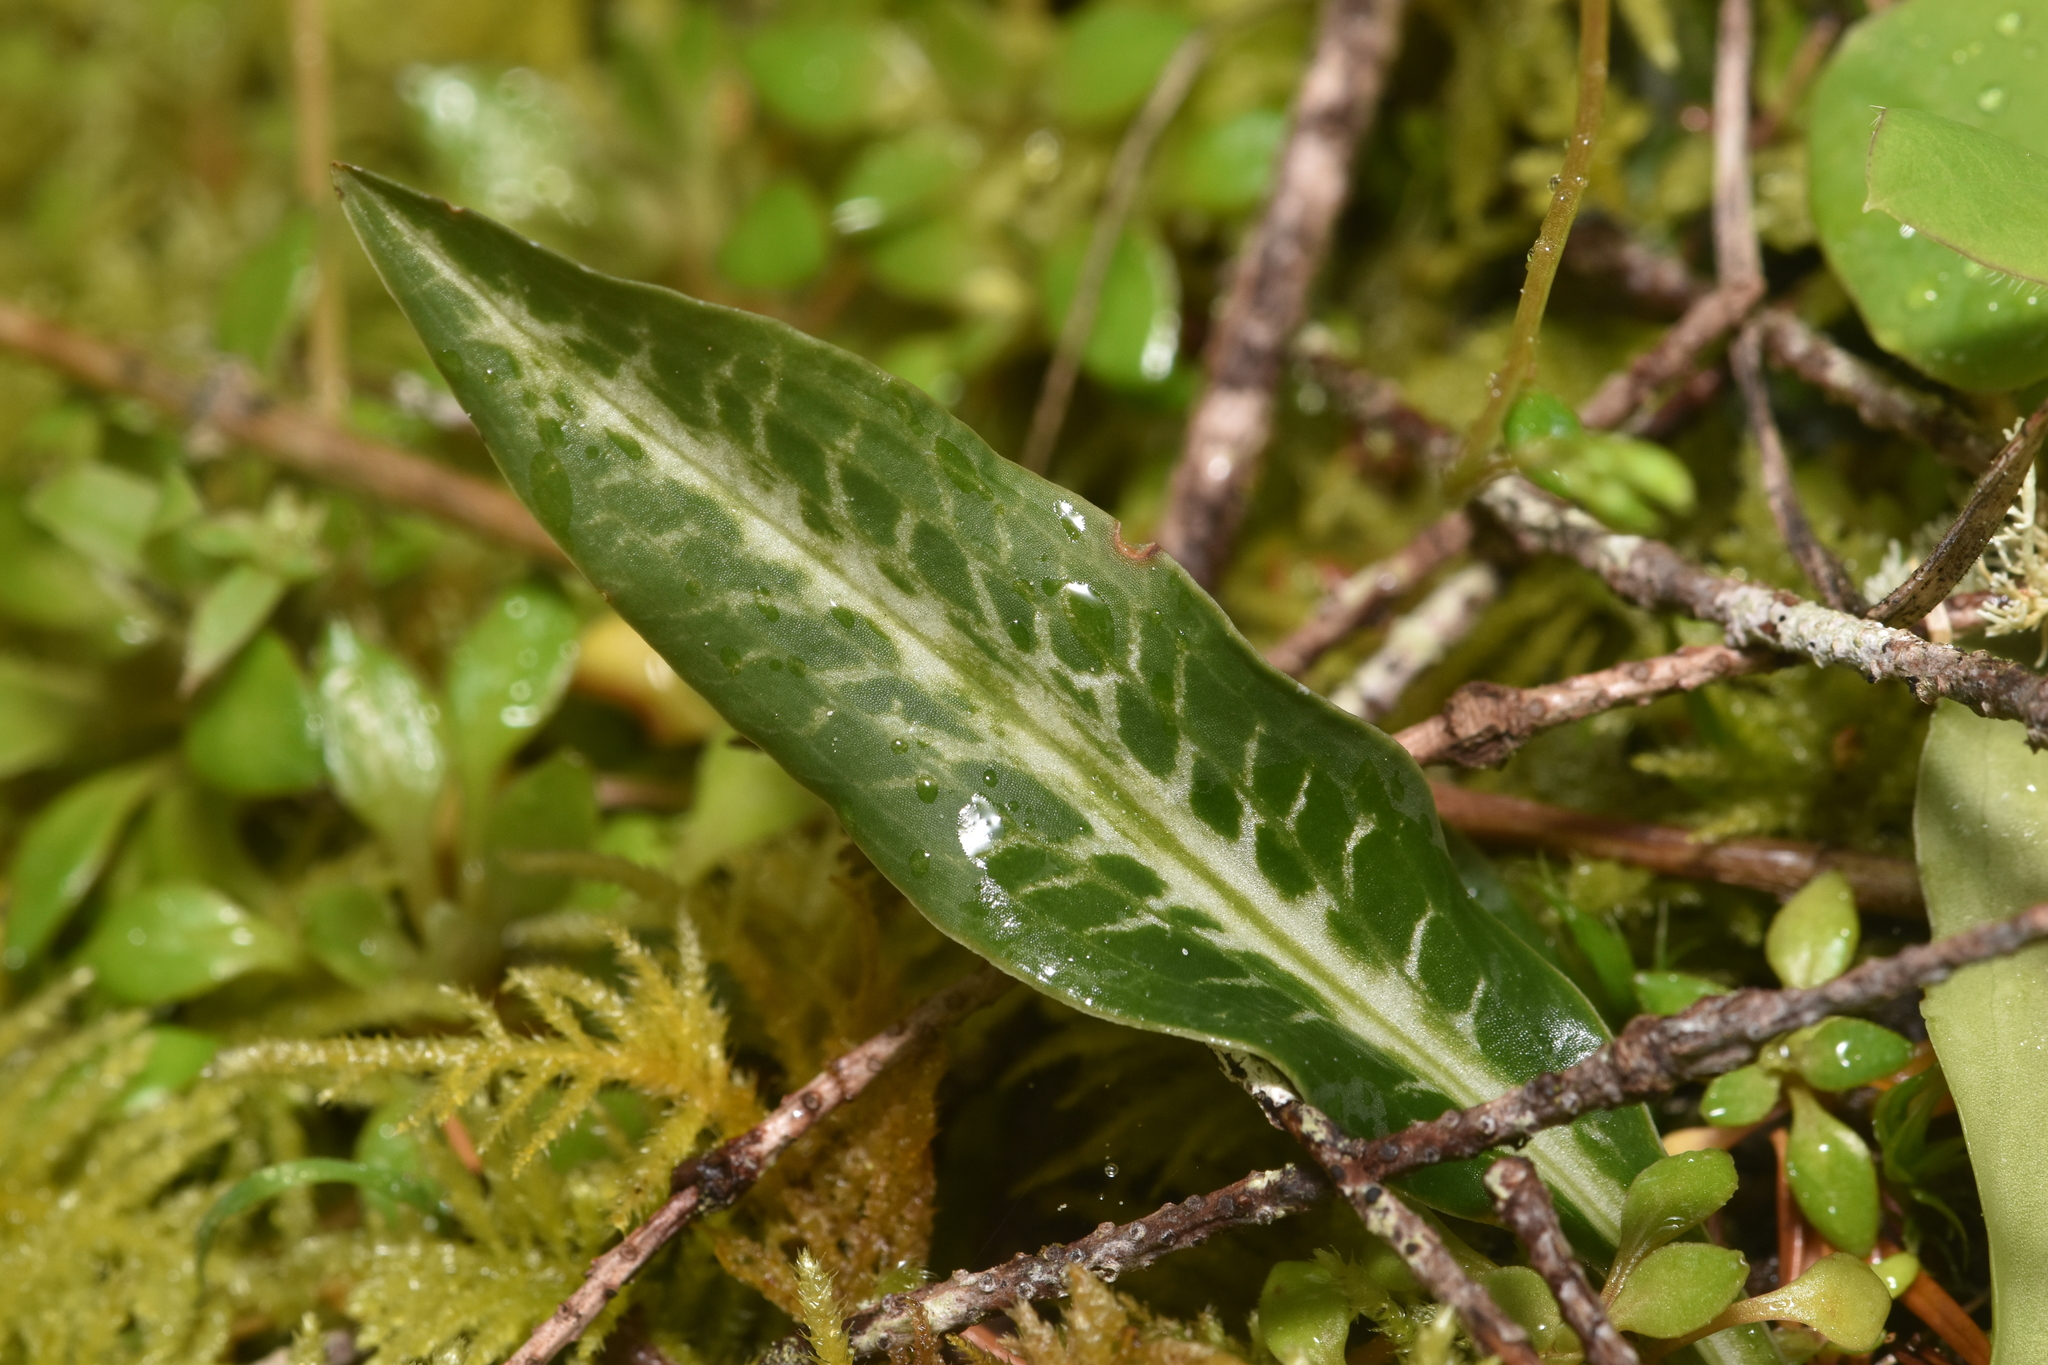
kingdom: Plantae
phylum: Tracheophyta
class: Liliopsida
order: Asparagales
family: Orchidaceae
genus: Goodyera
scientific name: Goodyera oblongifolia
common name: Giant rattlesnake-plantain
